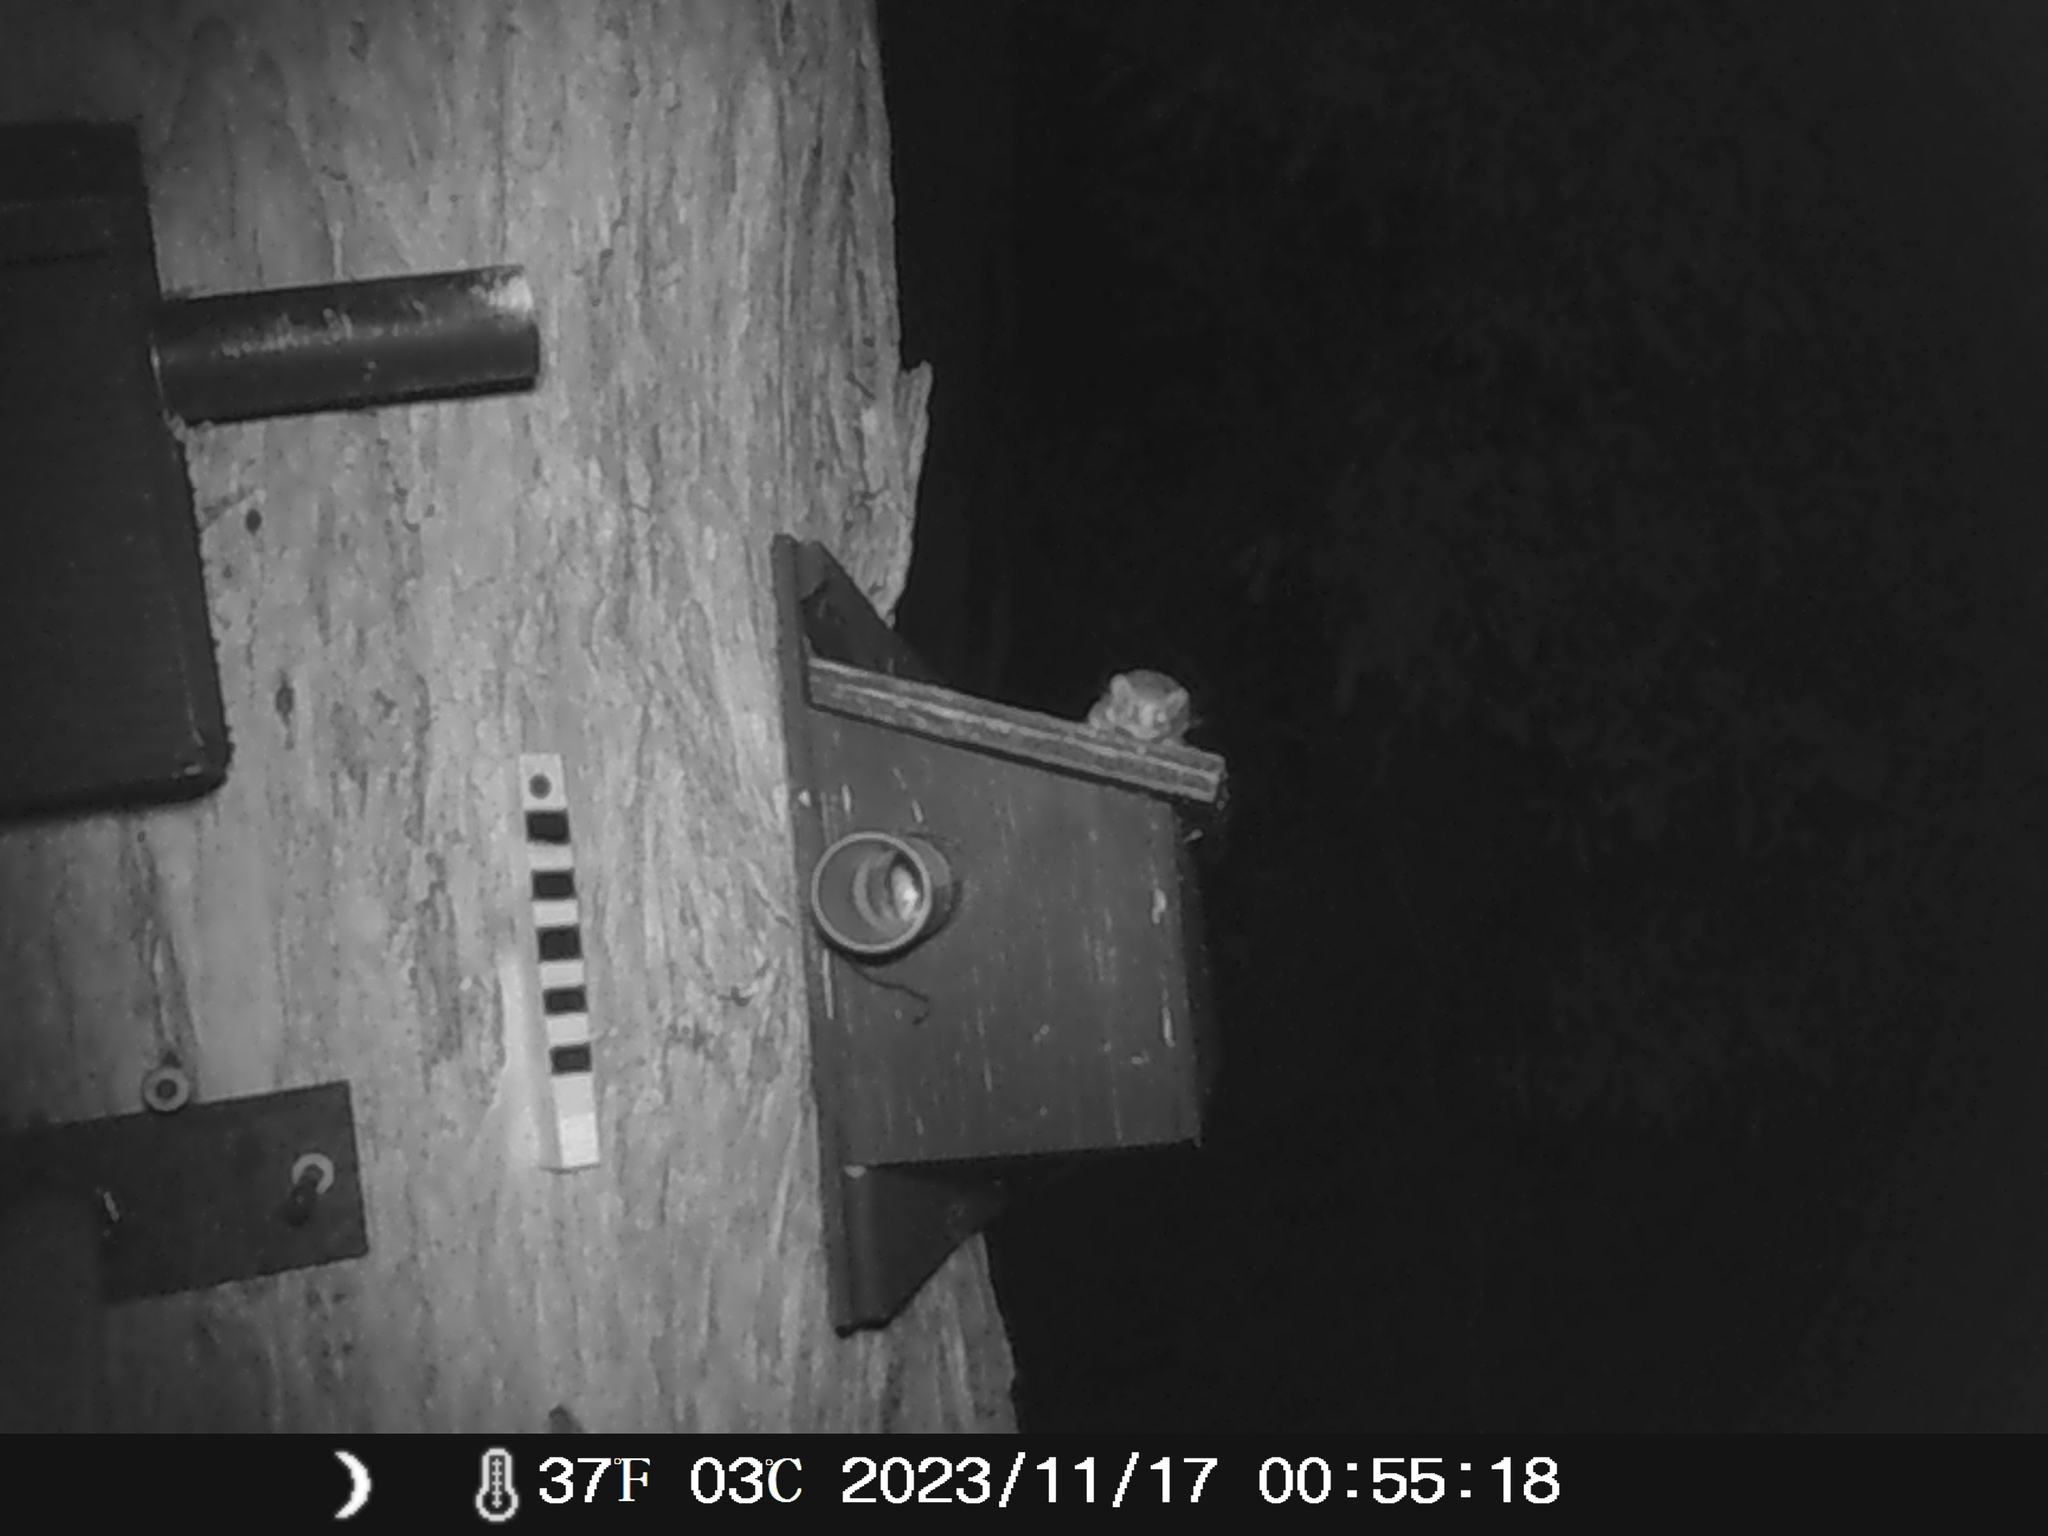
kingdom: Animalia
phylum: Chordata
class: Mammalia
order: Diprotodontia
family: Acrobatidae
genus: Acrobates
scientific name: Acrobates pygmaeus
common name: Feathertail glider
